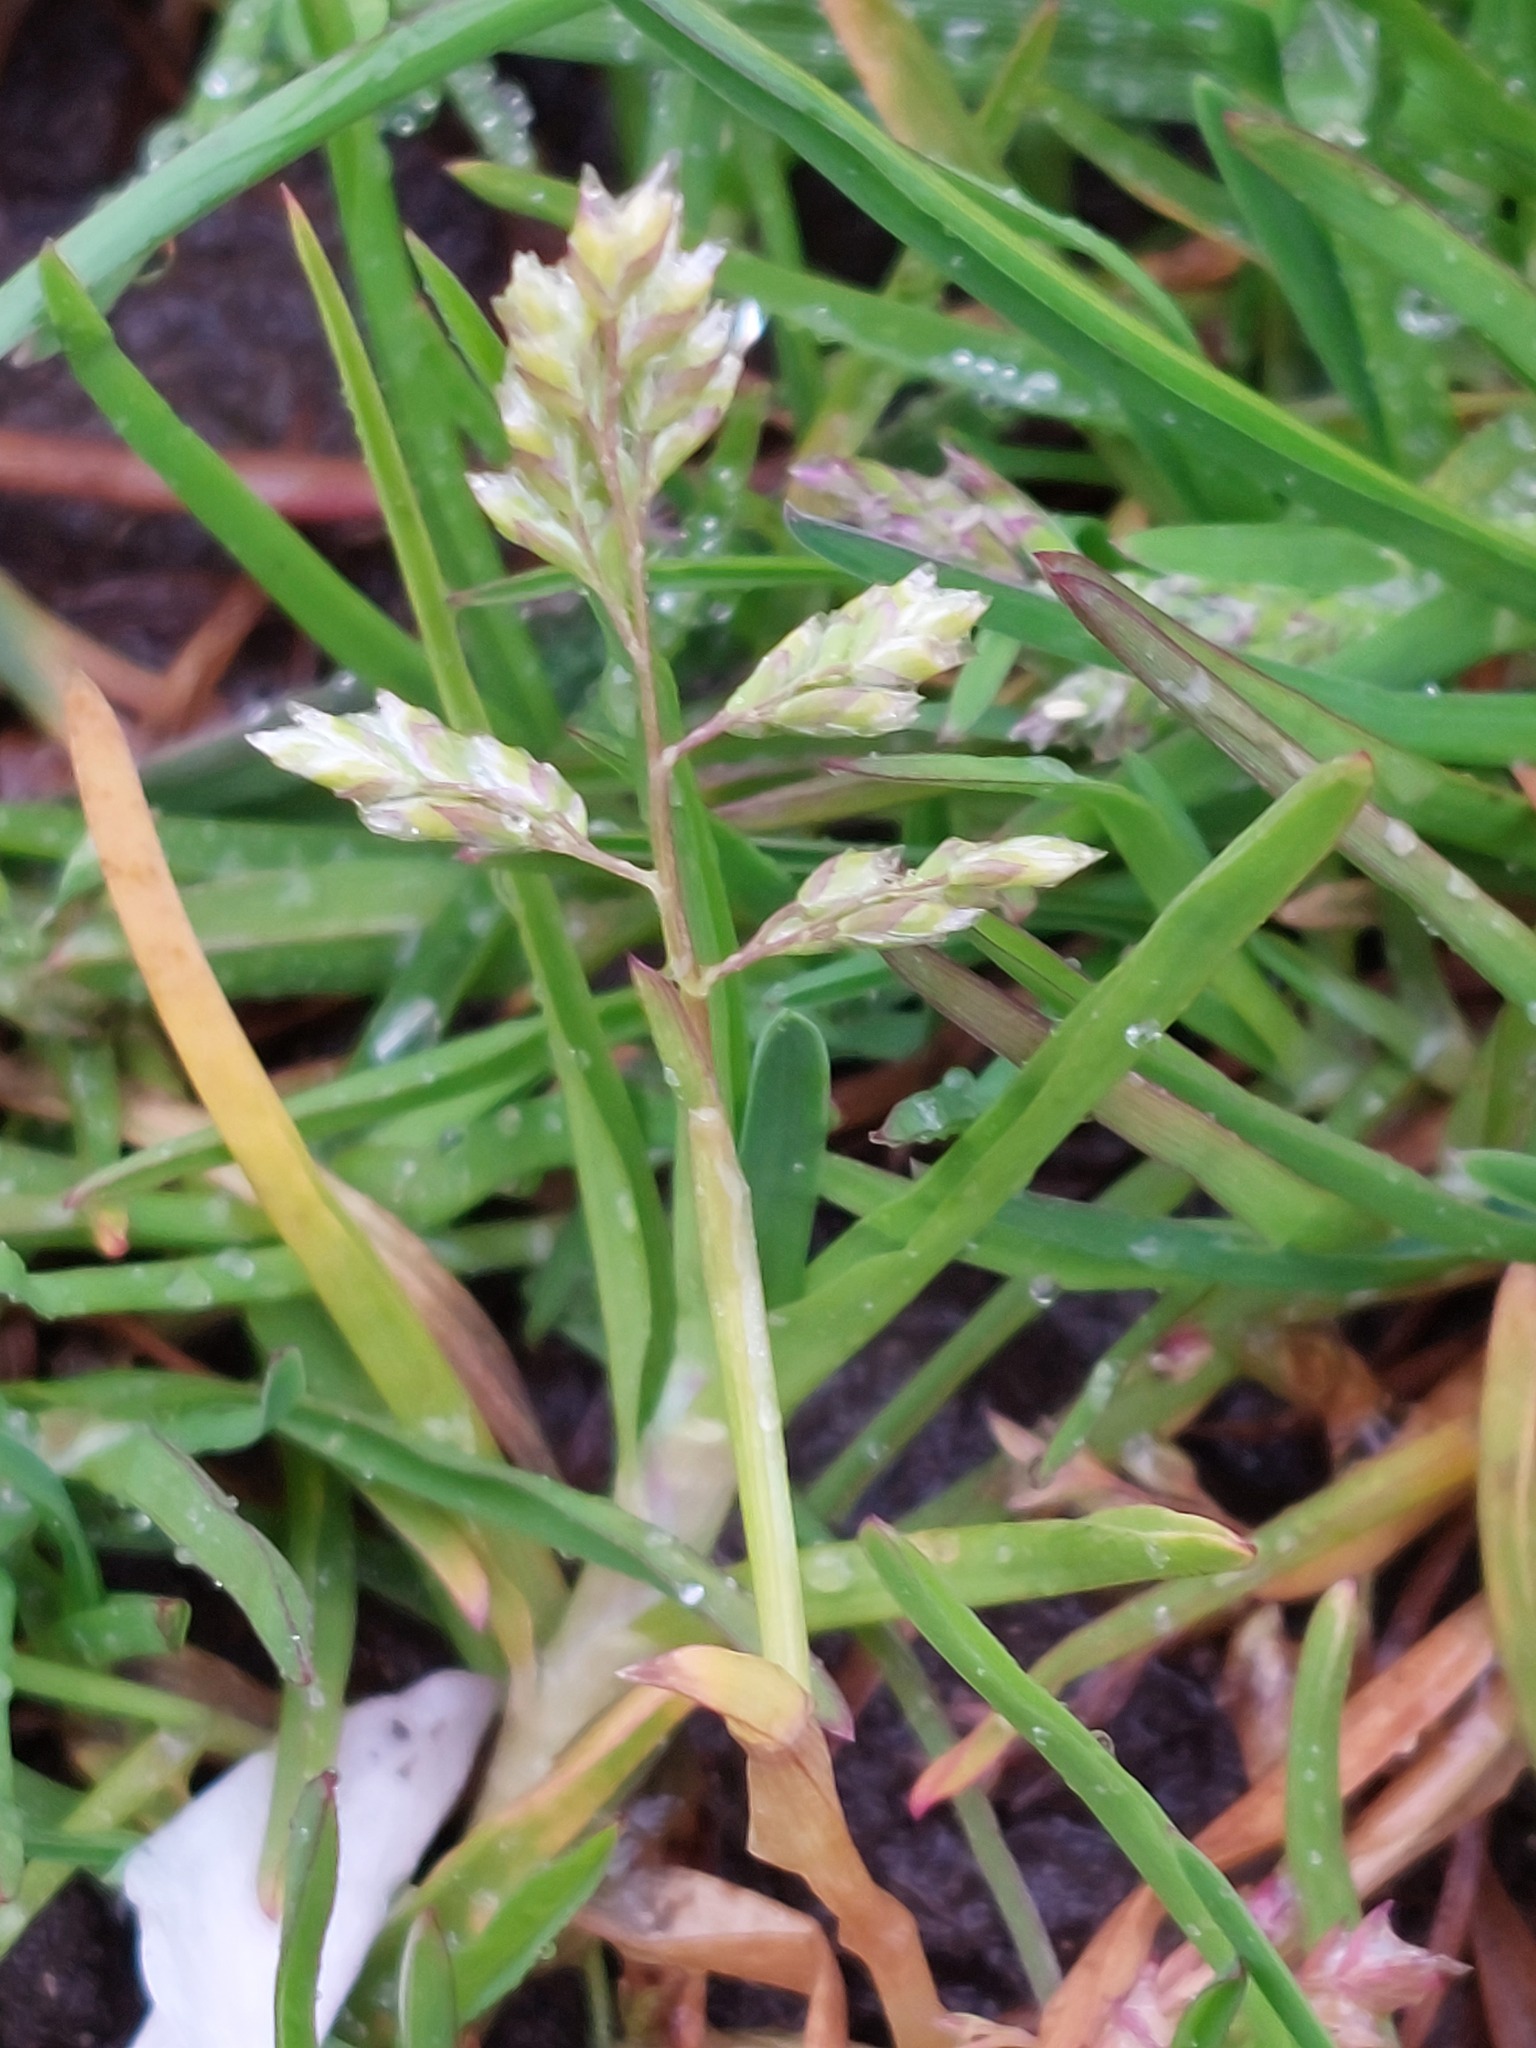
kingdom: Plantae
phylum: Tracheophyta
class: Liliopsida
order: Poales
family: Poaceae
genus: Poa
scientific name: Poa annua
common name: Annual bluegrass
